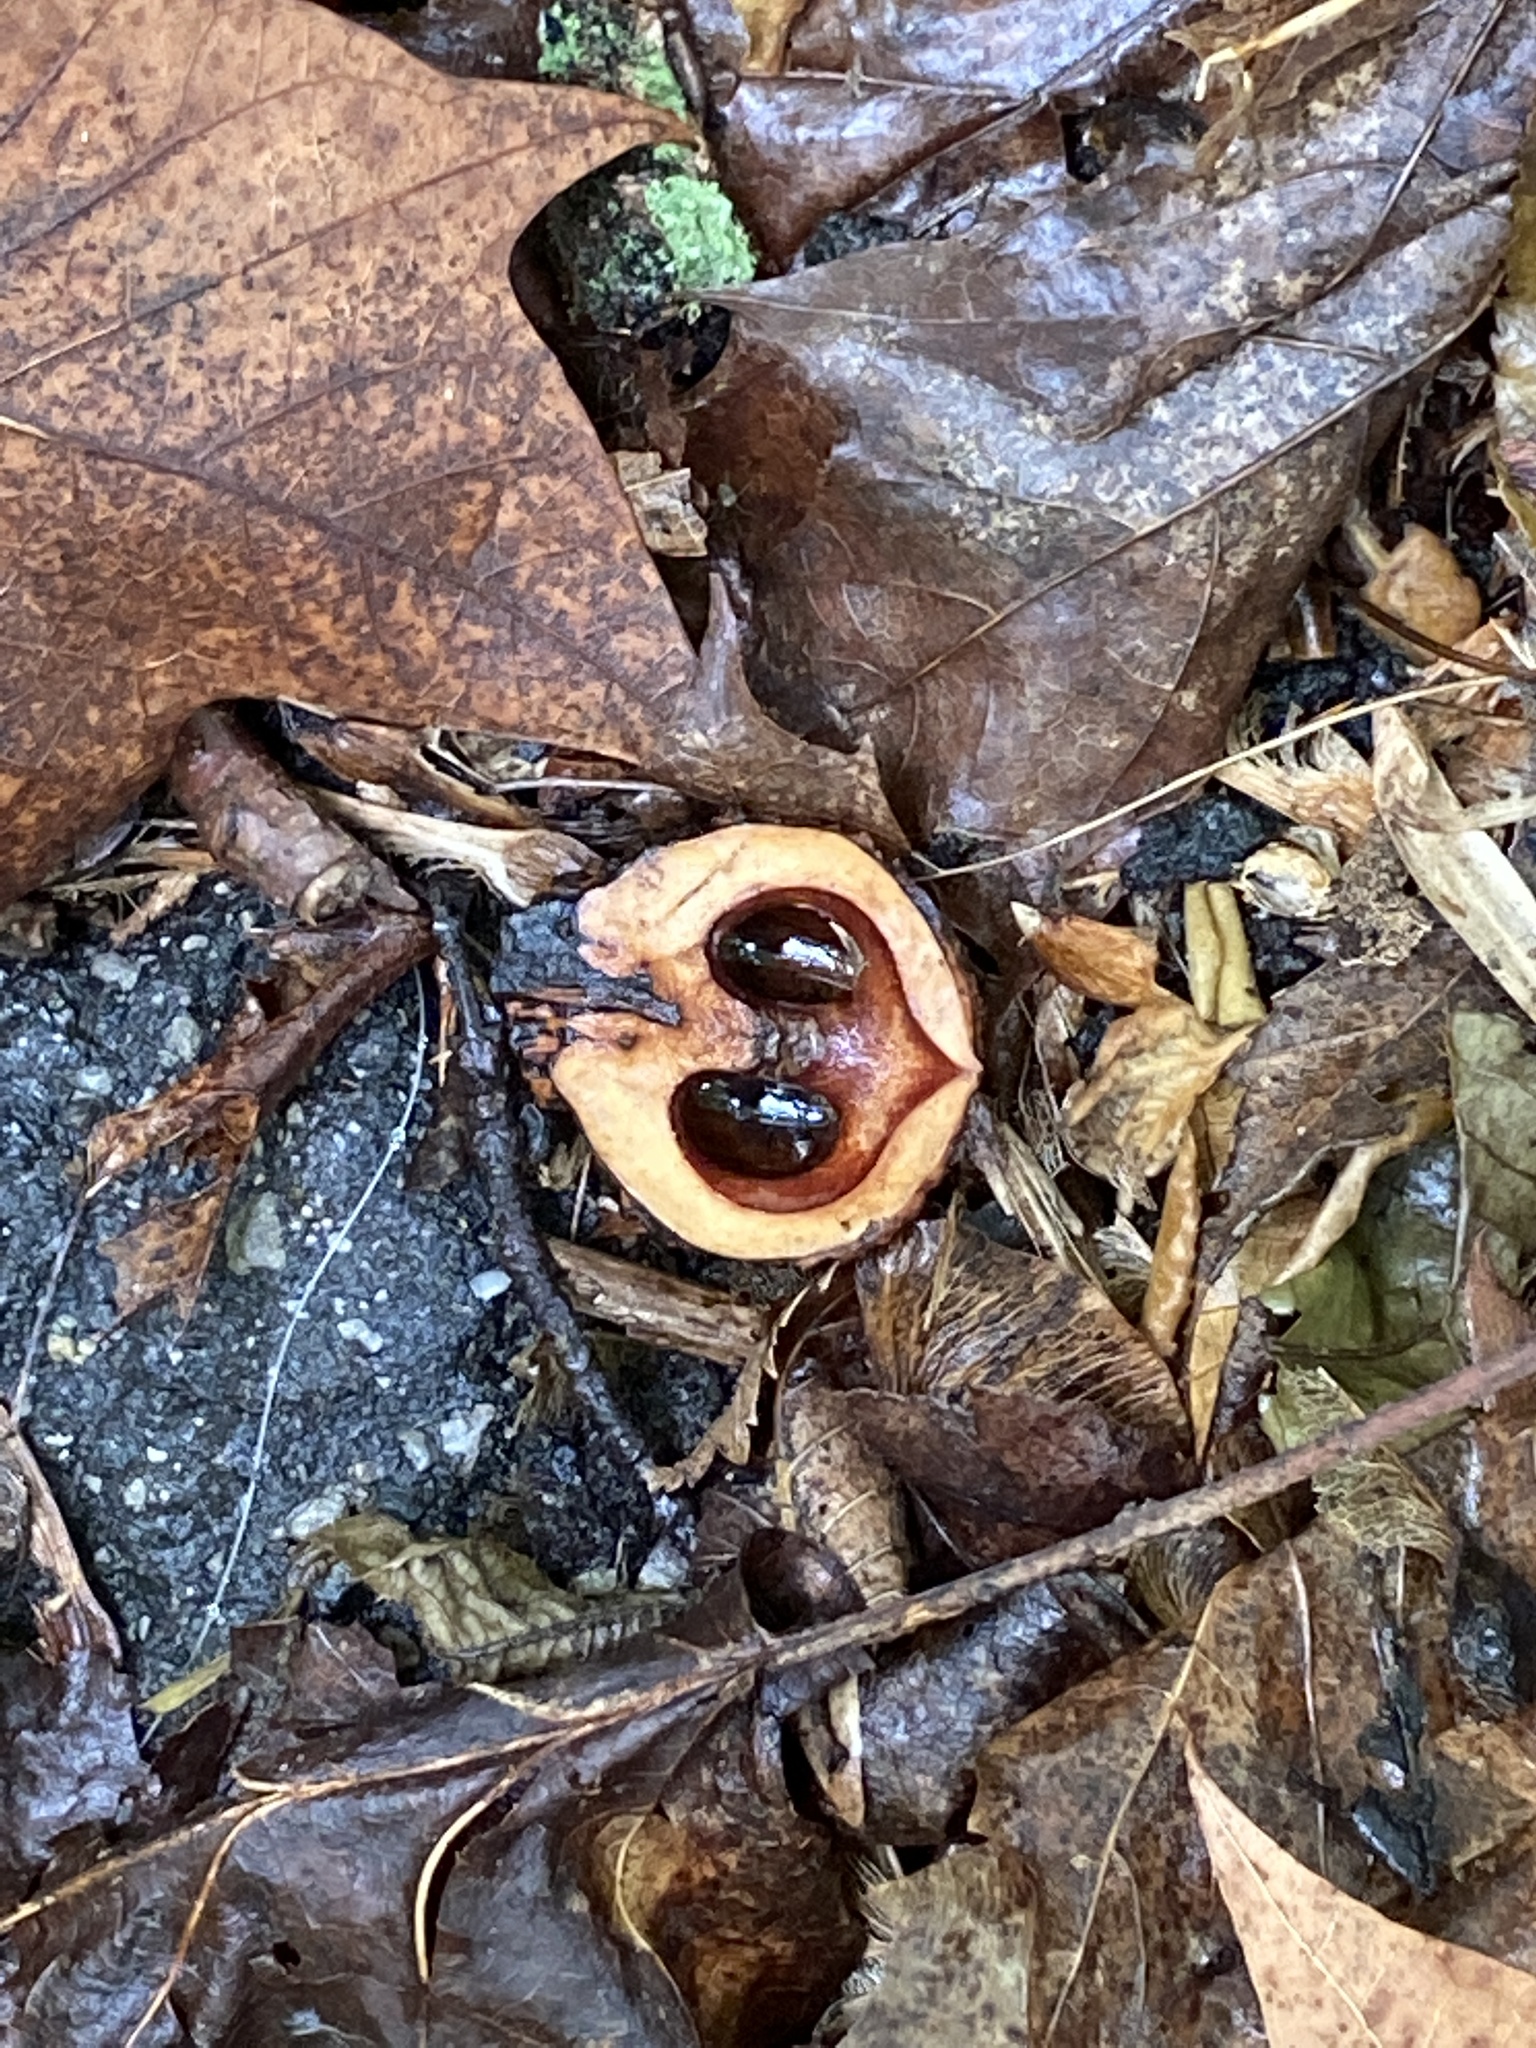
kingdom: Plantae
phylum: Tracheophyta
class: Magnoliopsida
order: Fagales
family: Juglandaceae
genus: Juglans
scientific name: Juglans nigra
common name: Black walnut
